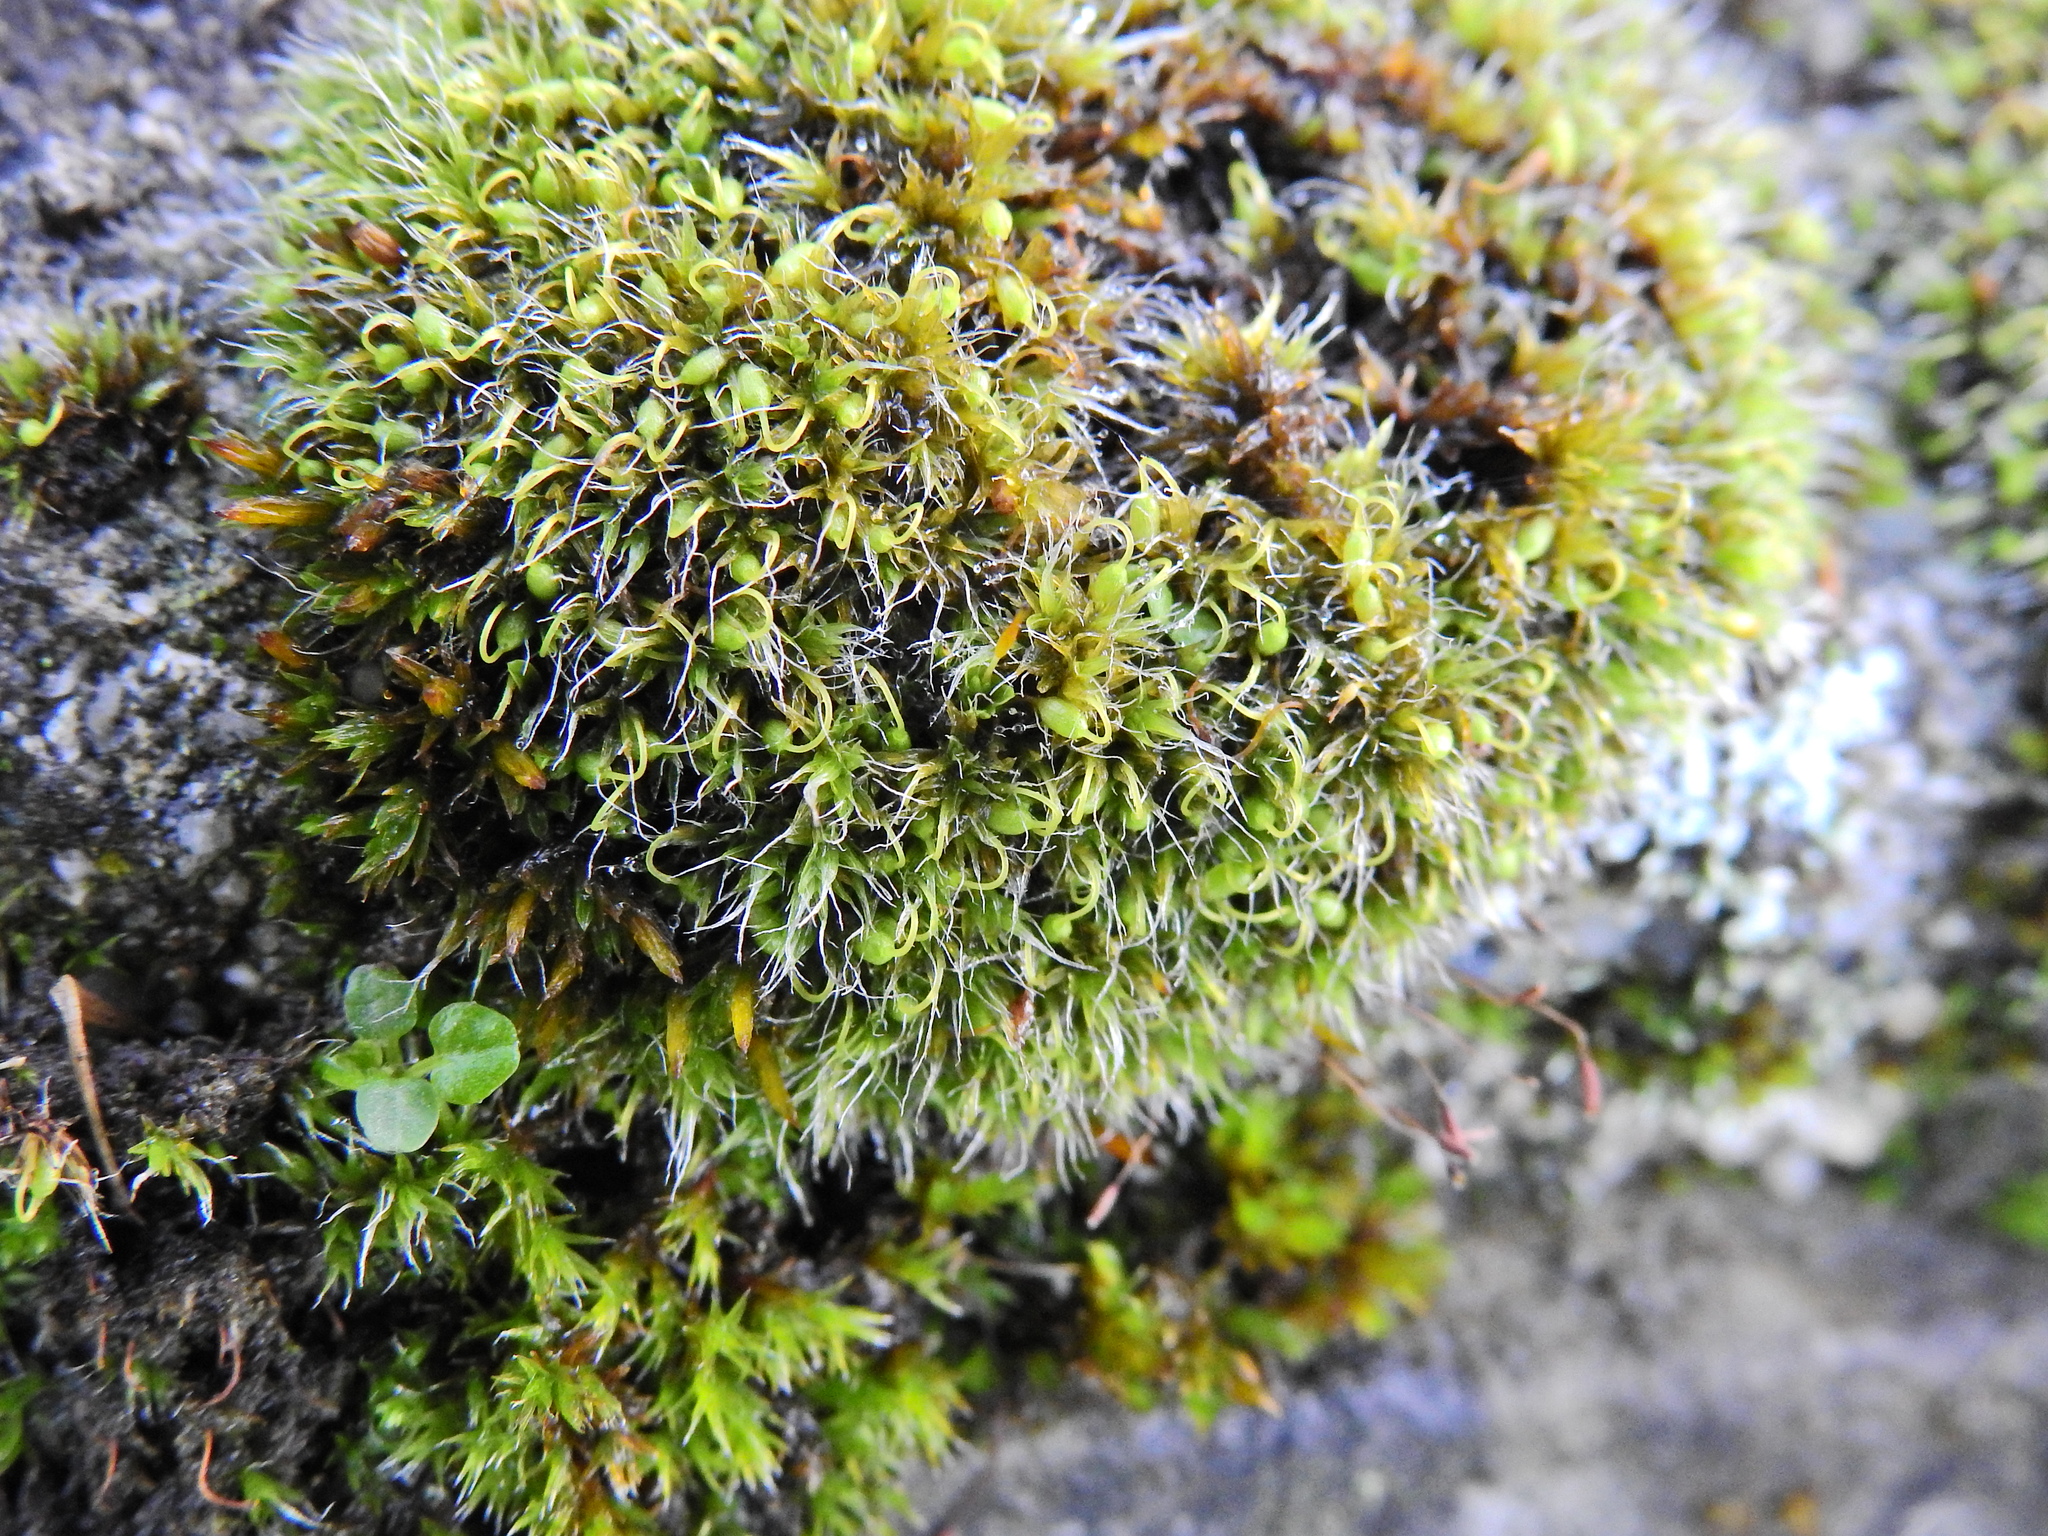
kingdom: Plantae
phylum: Bryophyta
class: Bryopsida
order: Grimmiales
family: Grimmiaceae
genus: Grimmia
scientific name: Grimmia pulvinata
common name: Grey-cushioned grimmia
